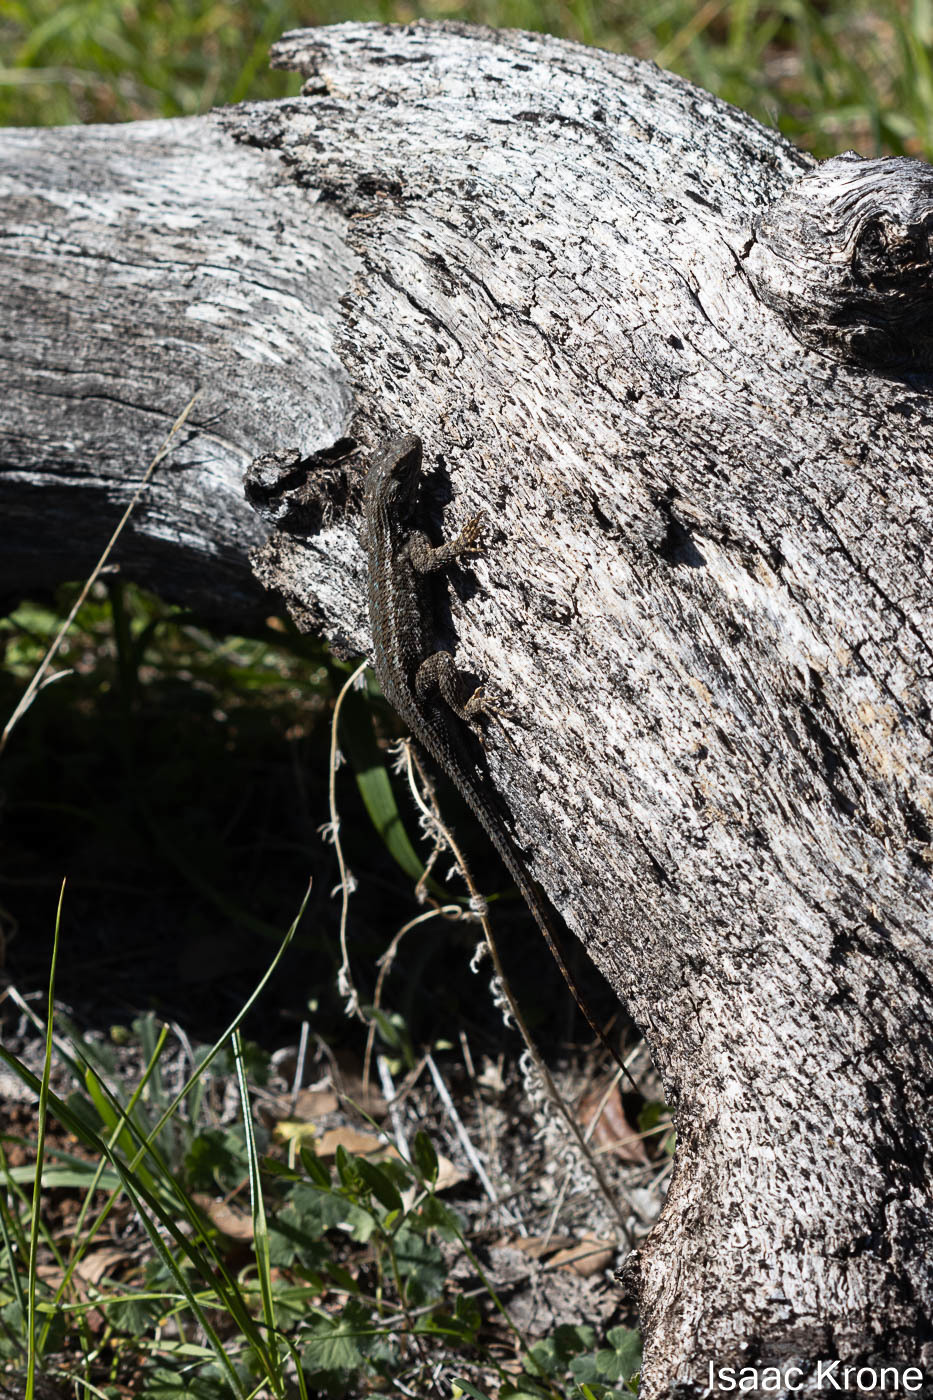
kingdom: Animalia
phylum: Chordata
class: Squamata
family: Phrynosomatidae
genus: Sceloporus
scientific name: Sceloporus occidentalis
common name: Western fence lizard
